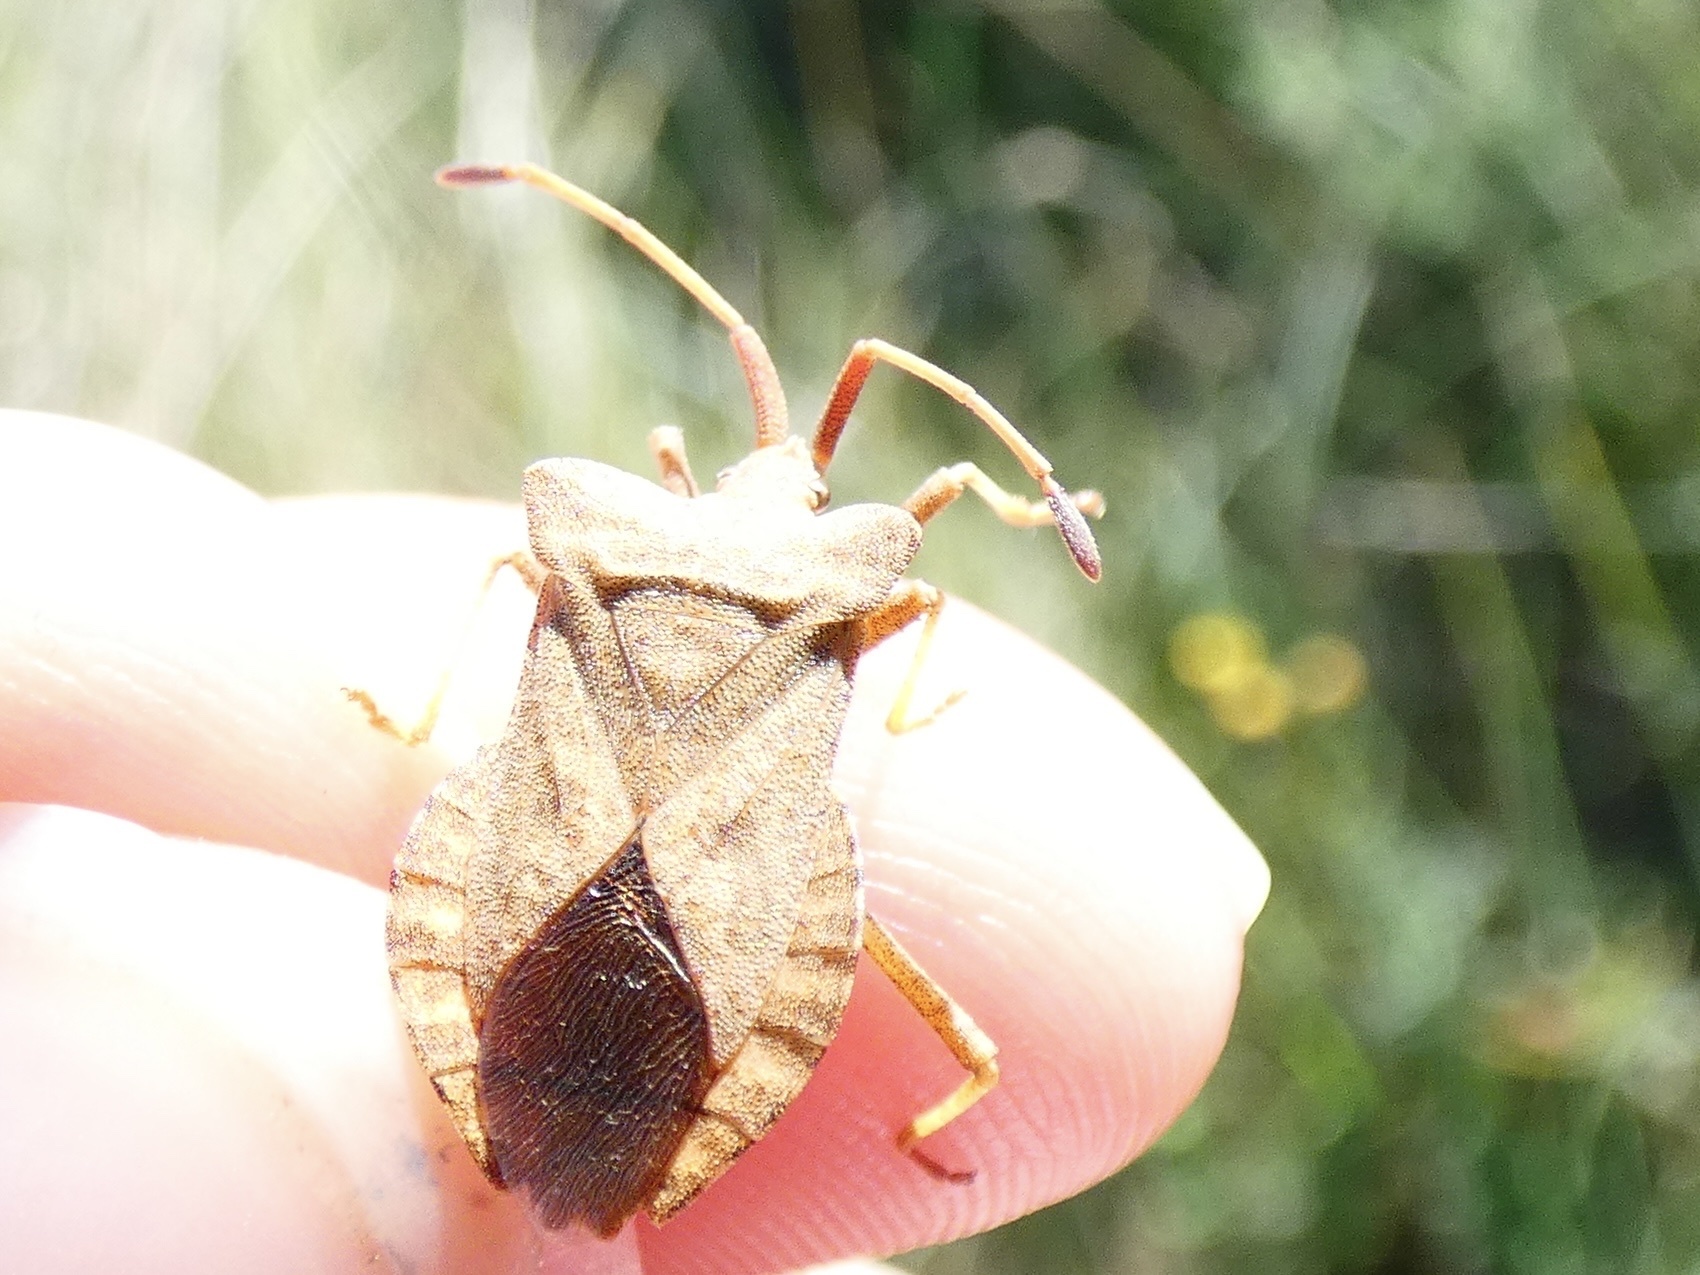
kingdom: Animalia
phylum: Arthropoda
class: Insecta
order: Hemiptera
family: Coreidae
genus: Coreus
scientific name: Coreus marginatus
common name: Dock bug
